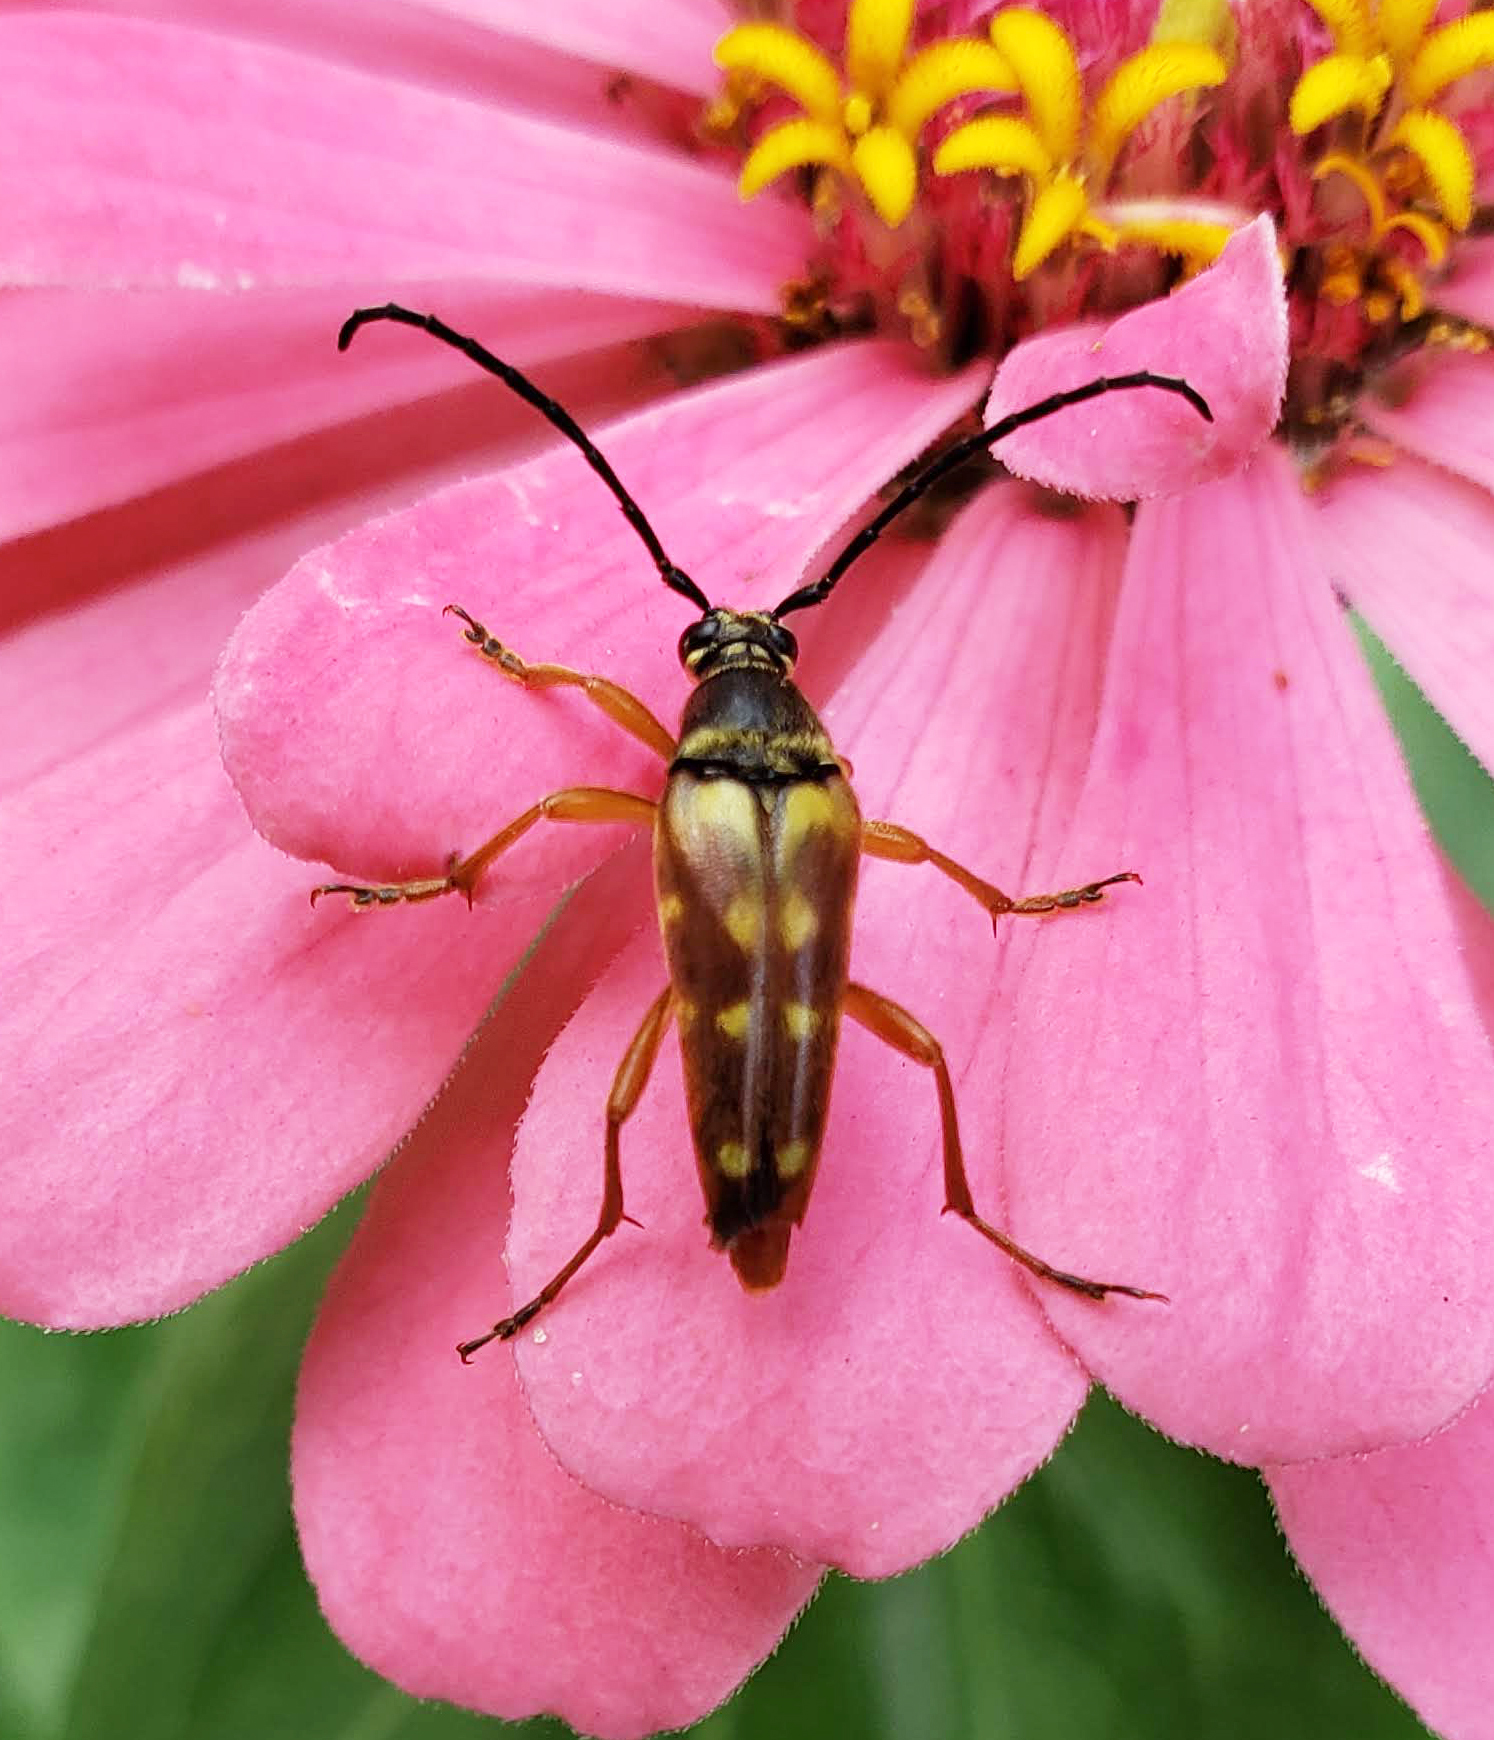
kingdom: Animalia
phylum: Arthropoda
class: Insecta
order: Coleoptera
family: Cerambycidae
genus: Typocerus
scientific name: Typocerus velutinus
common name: Banded longhorn beetle
